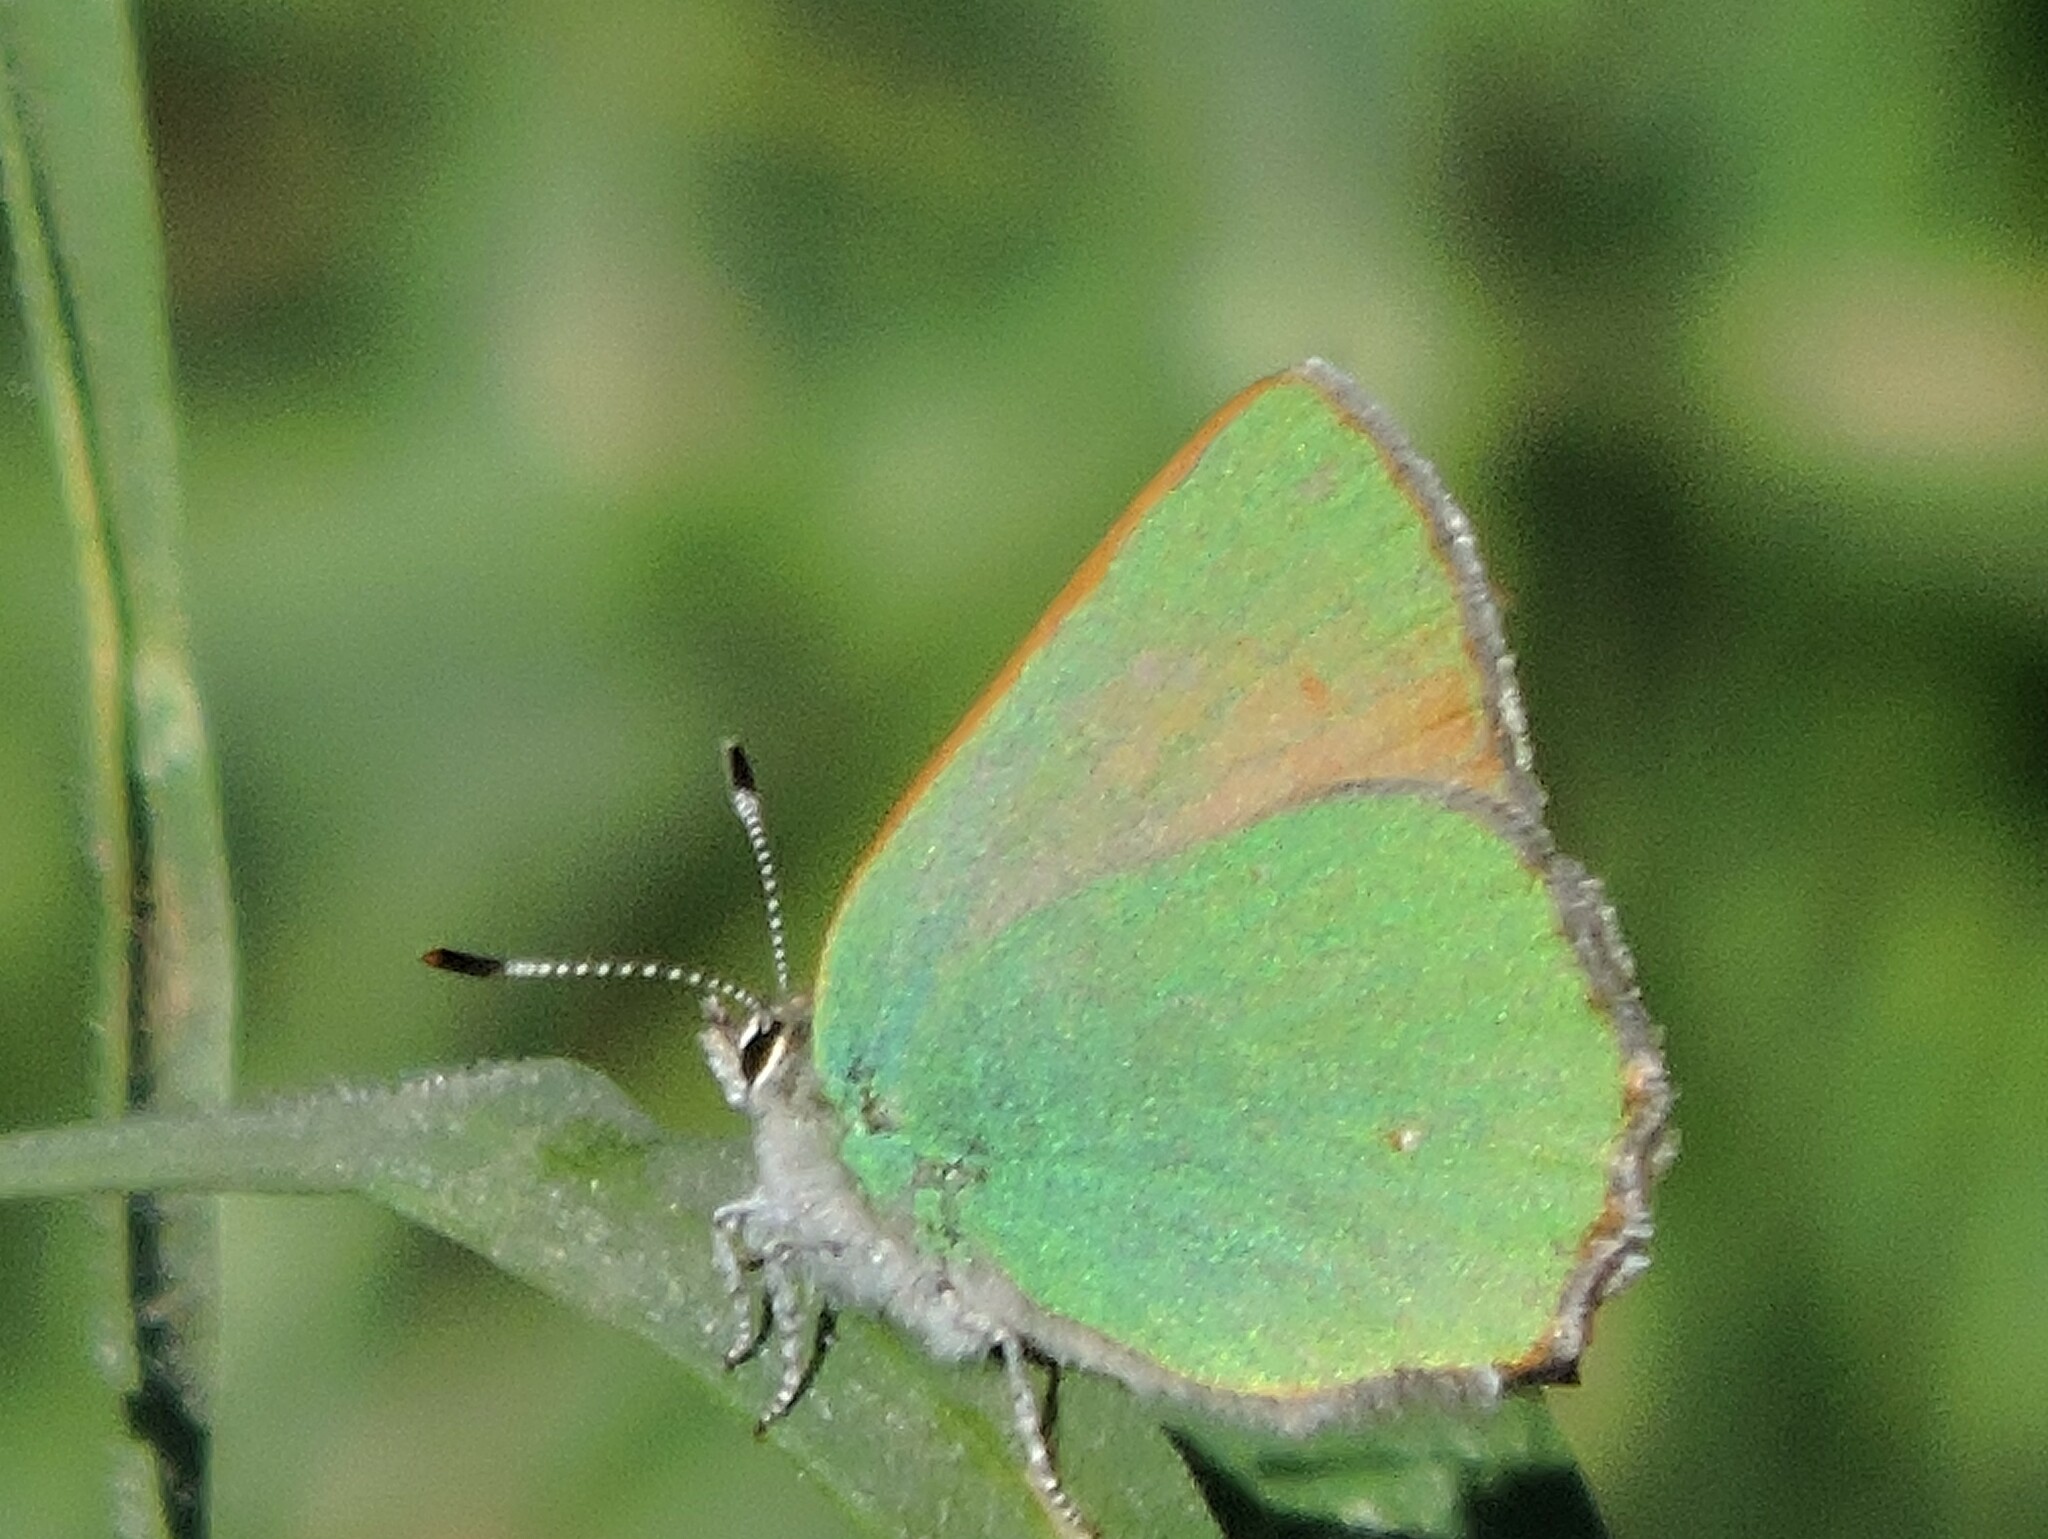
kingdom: Animalia
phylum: Arthropoda
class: Insecta
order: Lepidoptera
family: Lycaenidae
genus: Callophrys
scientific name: Callophrys dumetorum
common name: Bramble hairstreak
